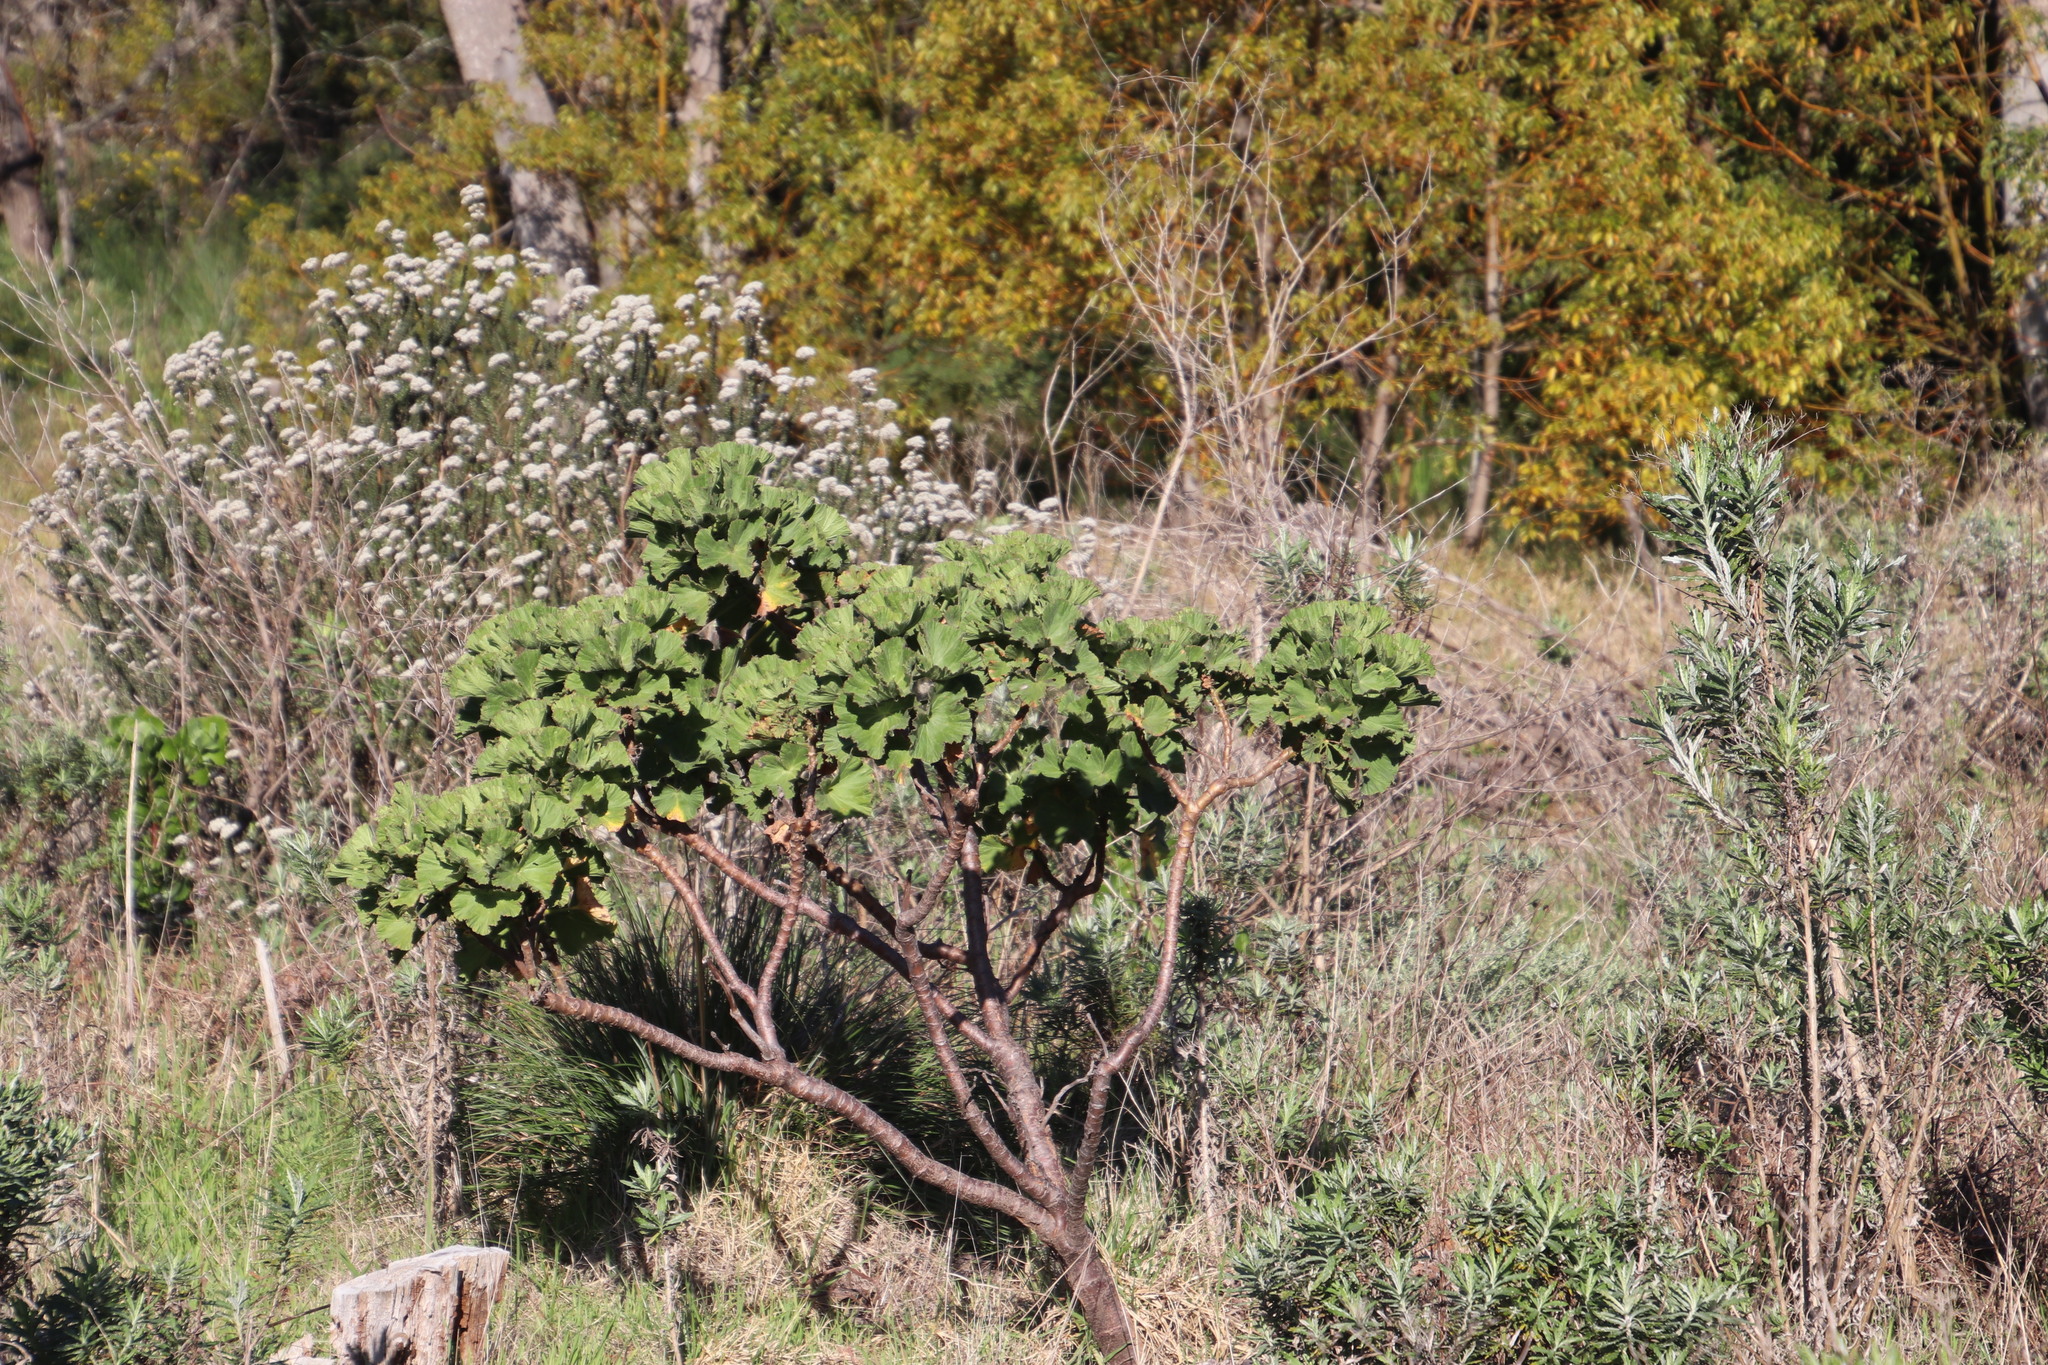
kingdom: Plantae
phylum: Tracheophyta
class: Magnoliopsida
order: Geraniales
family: Geraniaceae
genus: Pelargonium
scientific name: Pelargonium cucullatum
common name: Tree pelargonium
